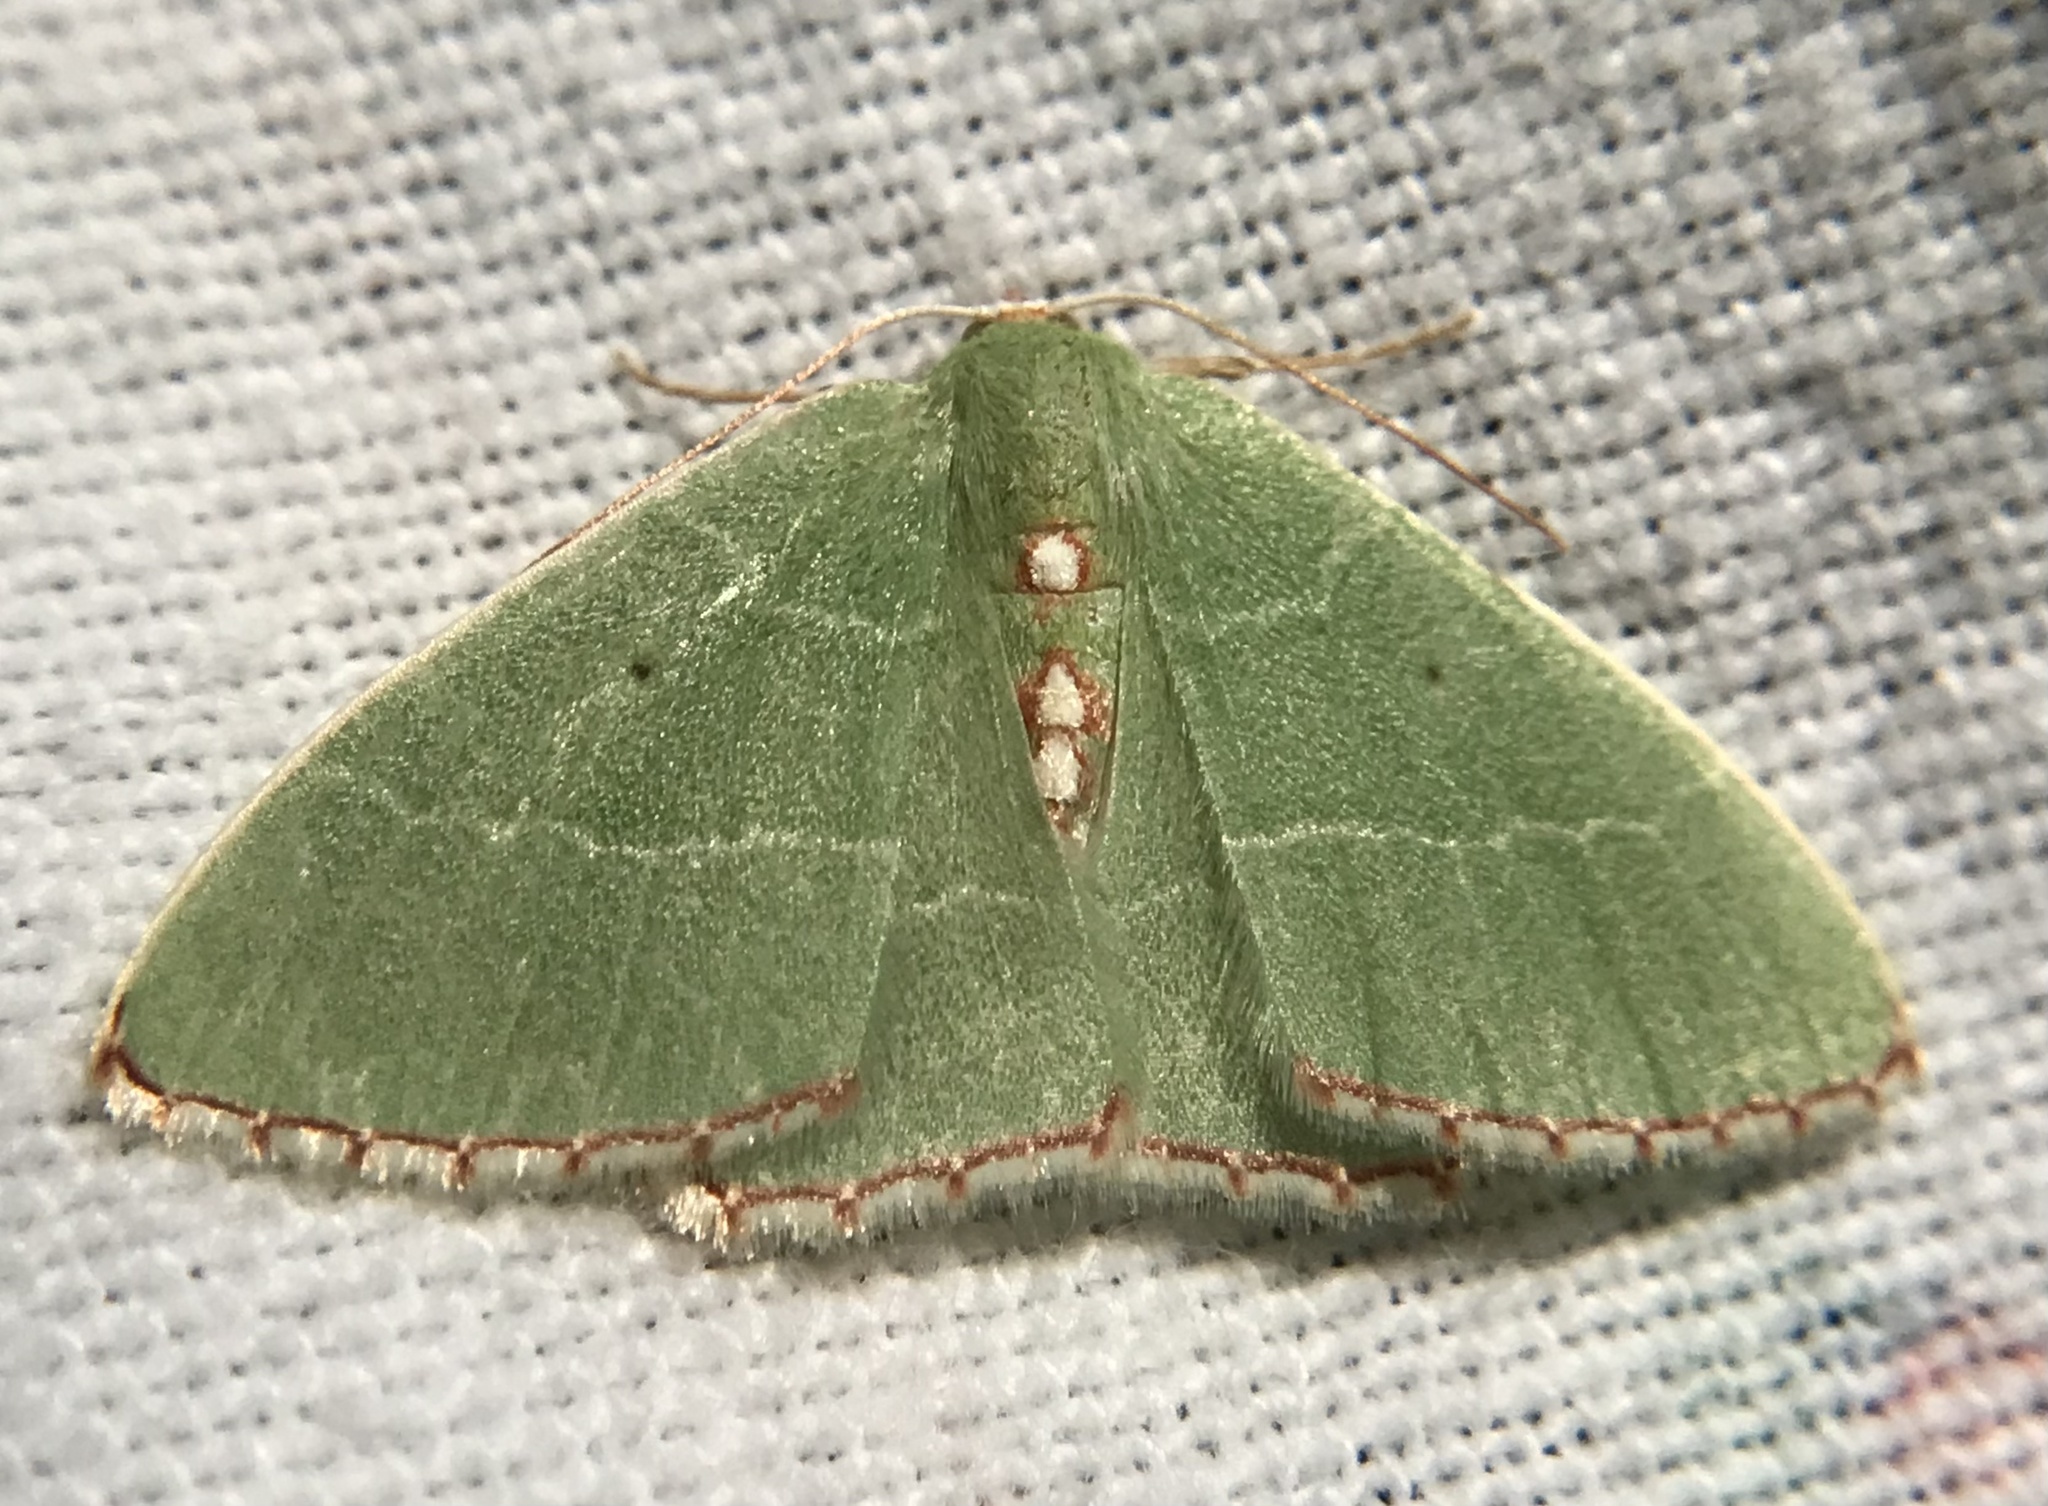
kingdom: Animalia
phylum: Arthropoda
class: Insecta
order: Lepidoptera
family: Geometridae
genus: Nemoria
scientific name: Nemoria lixaria
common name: Red-bordered emerald
